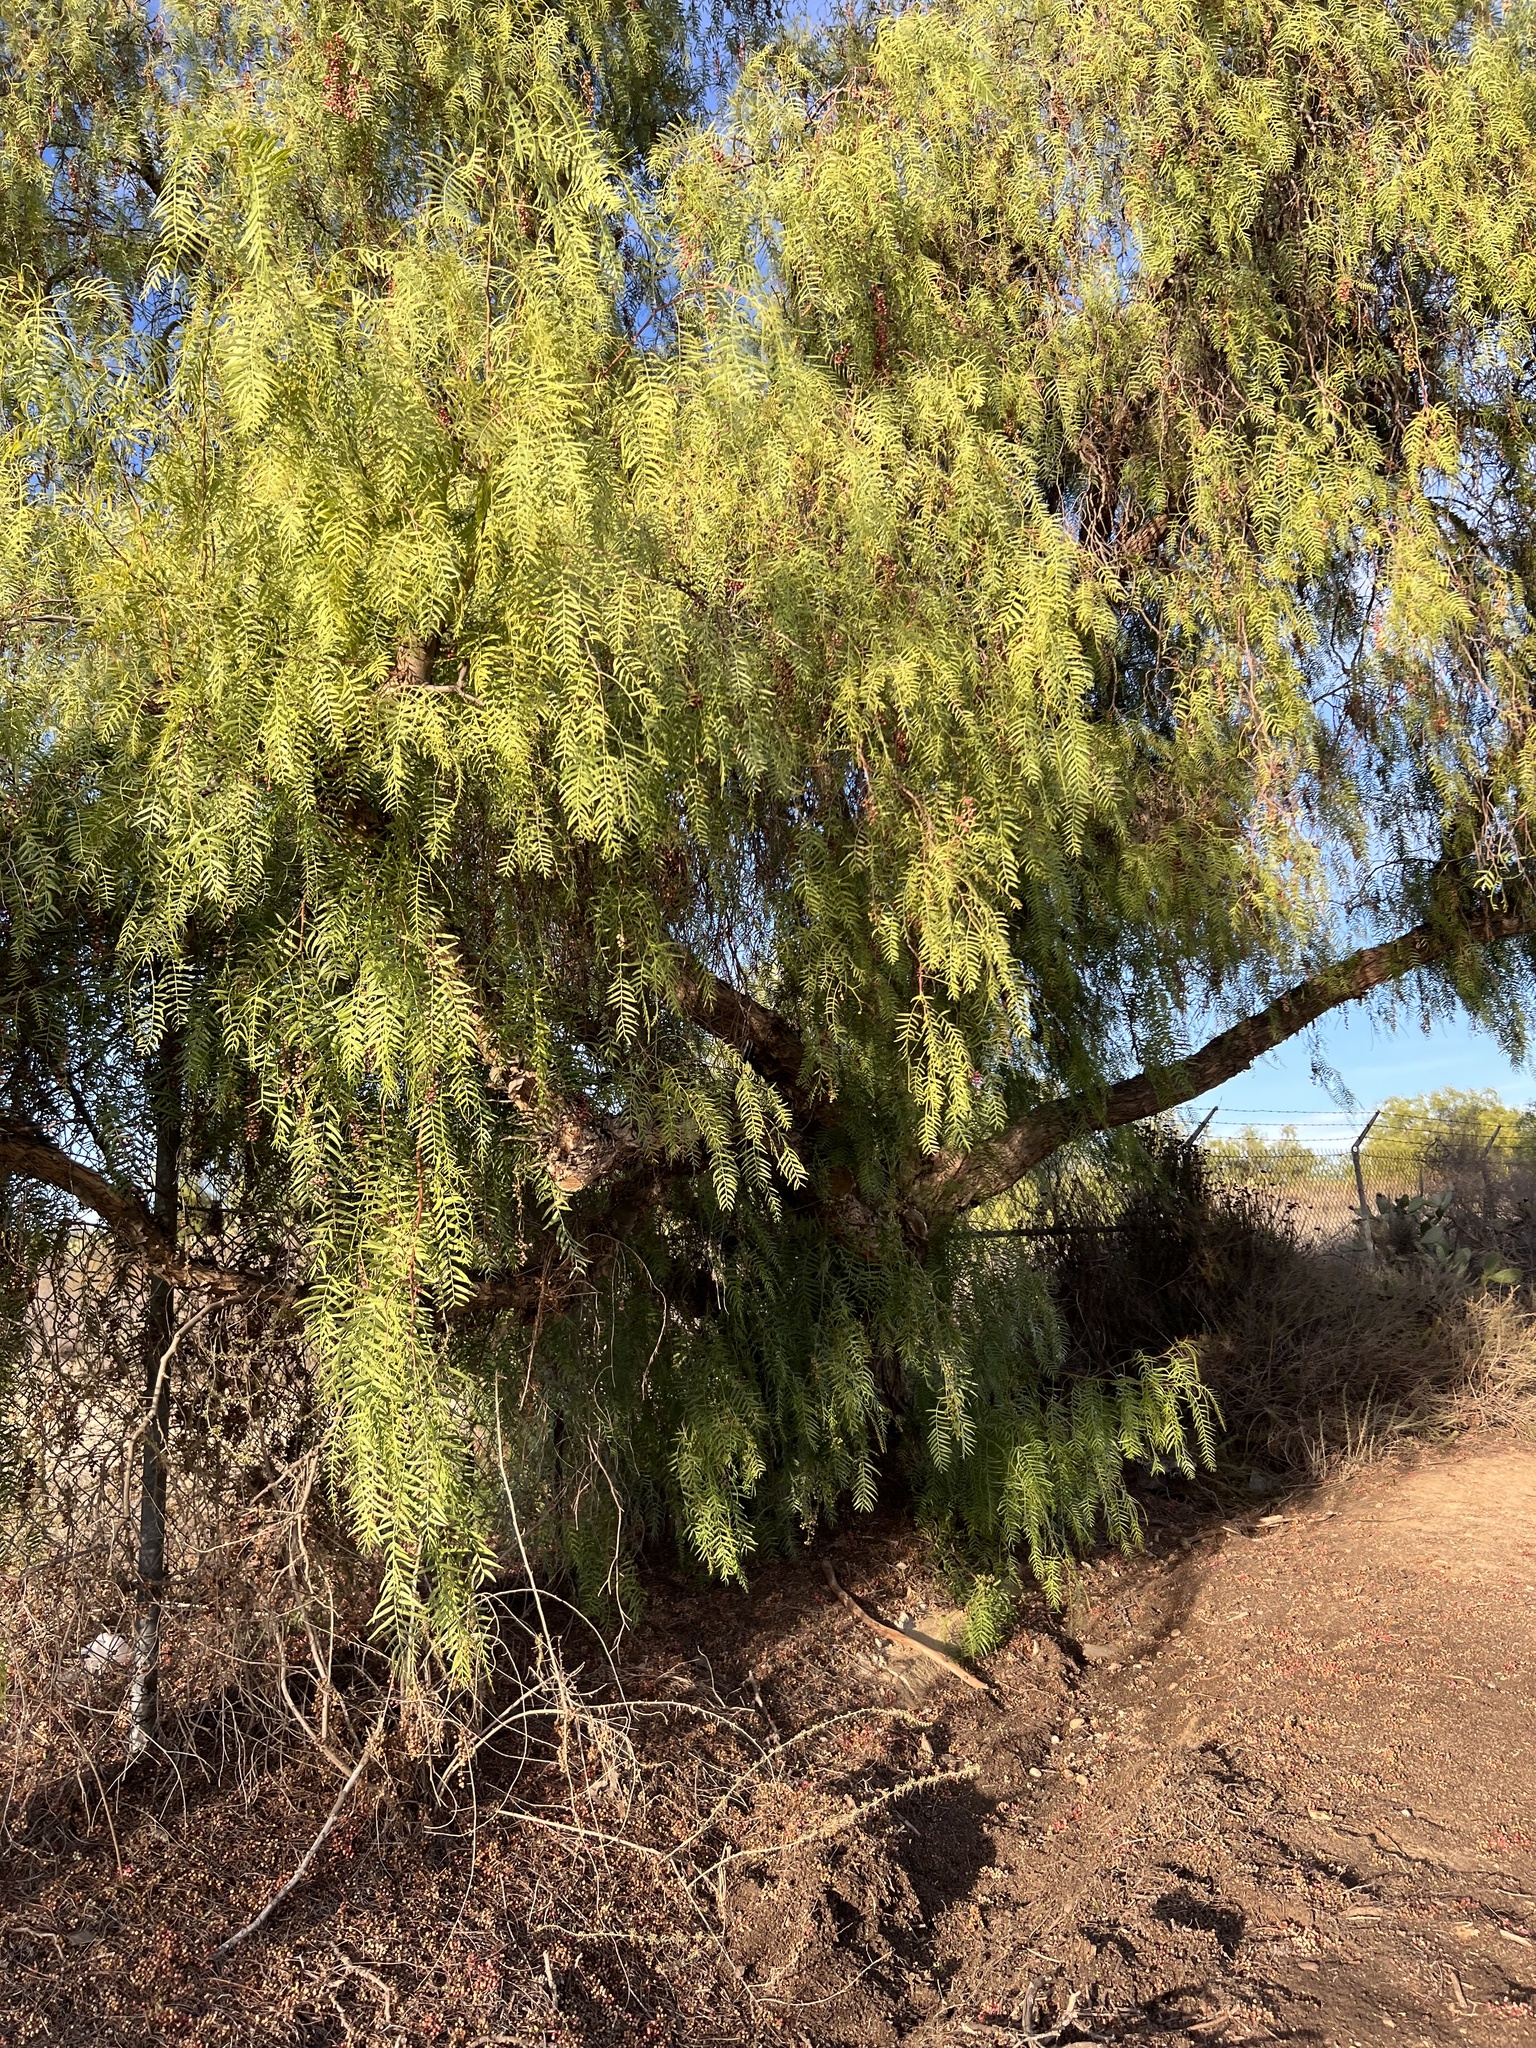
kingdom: Plantae
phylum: Tracheophyta
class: Magnoliopsida
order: Sapindales
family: Anacardiaceae
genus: Schinus
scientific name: Schinus molle
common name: Peruvian peppertree
